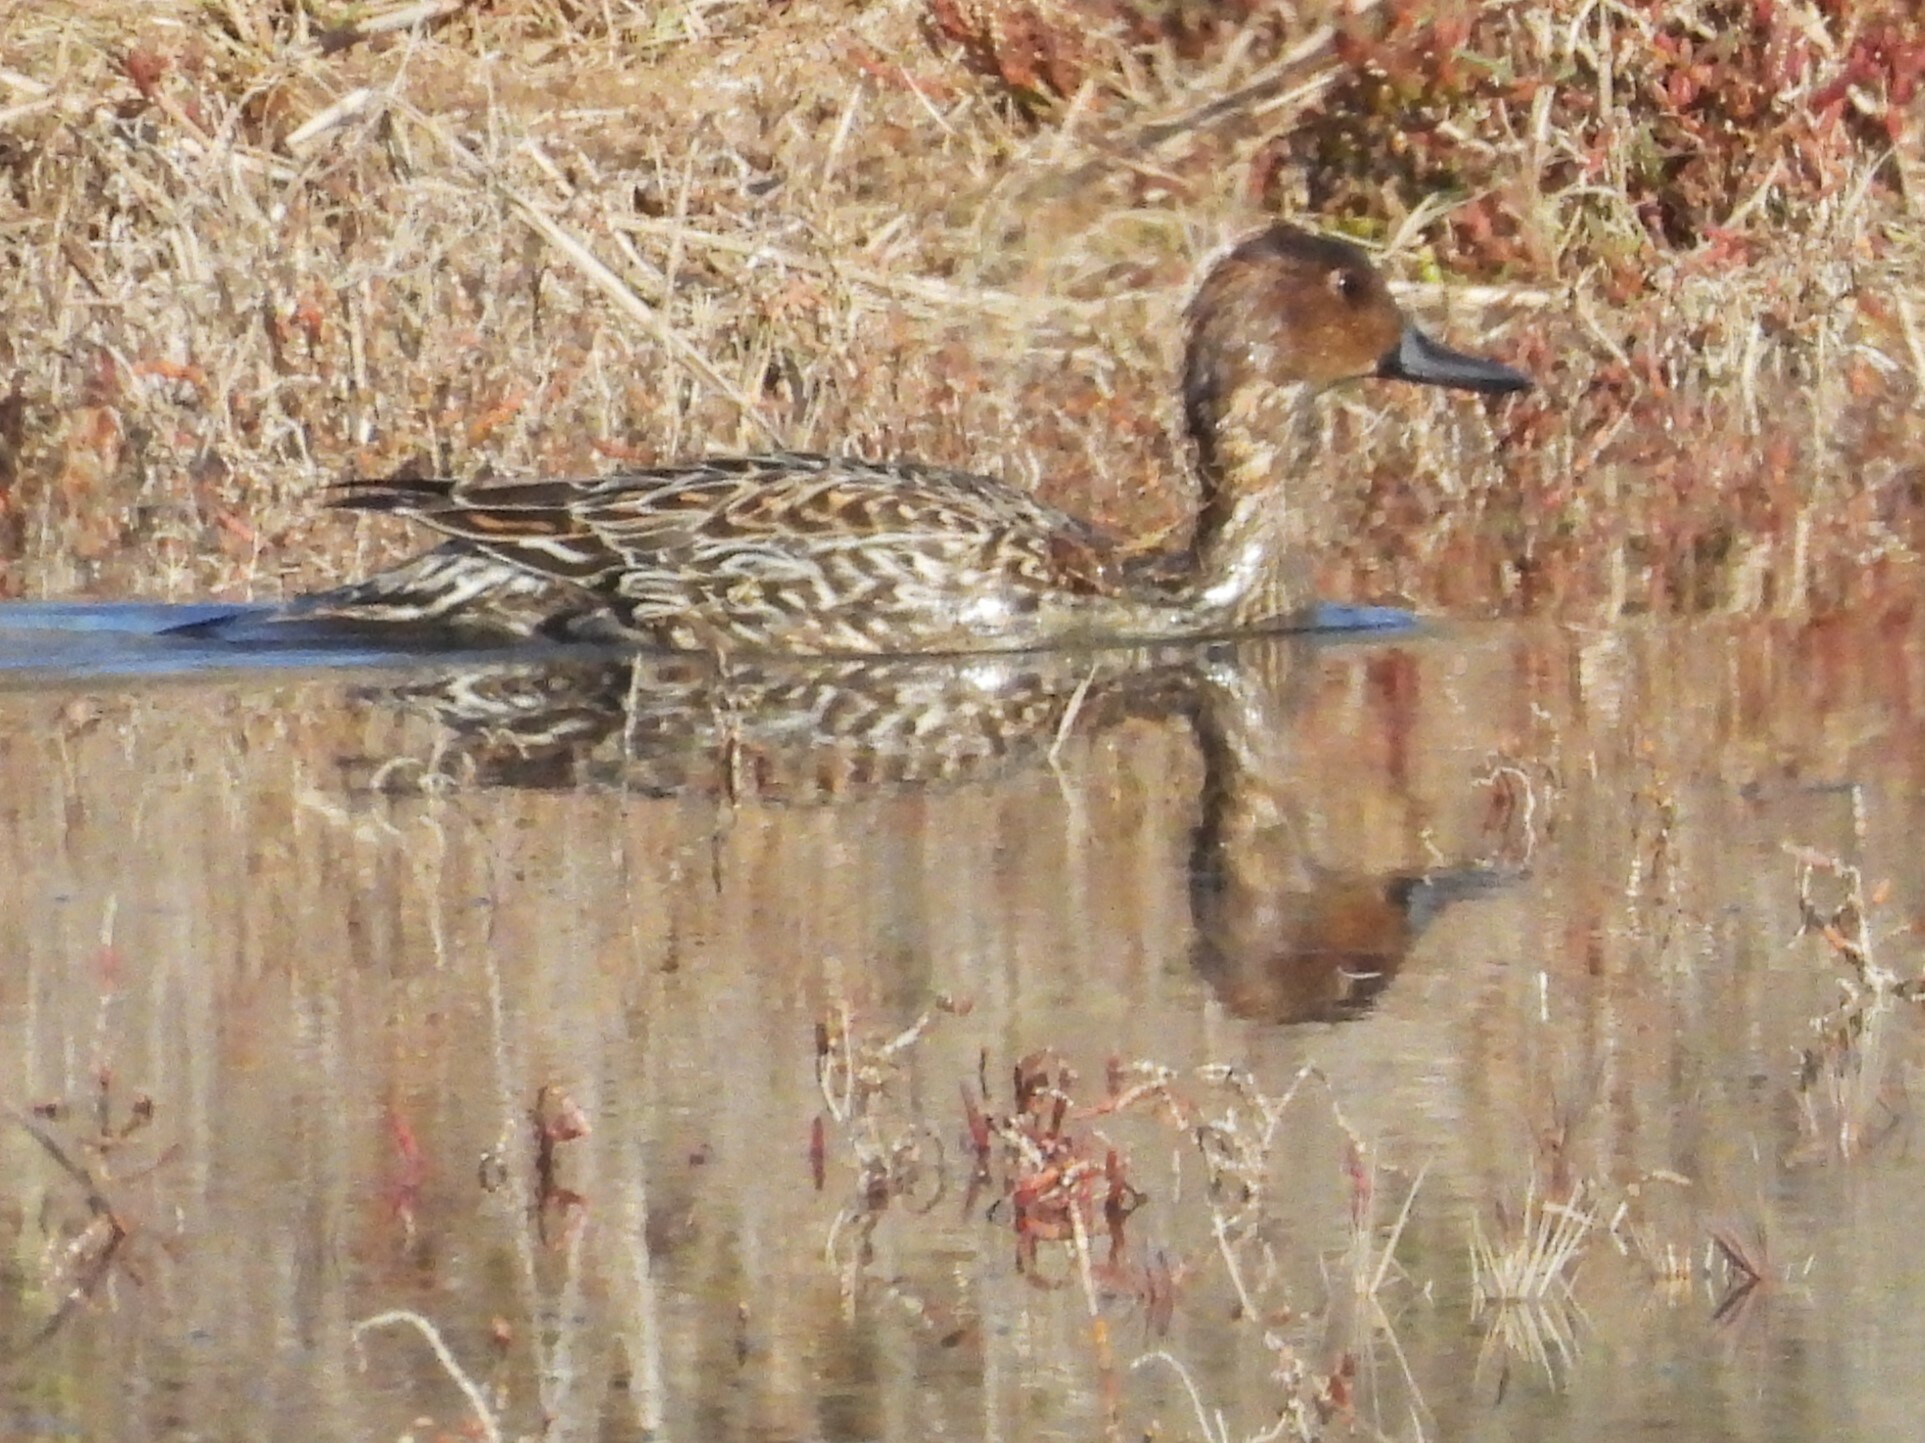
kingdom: Animalia
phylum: Chordata
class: Aves
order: Anseriformes
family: Anatidae
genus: Anas
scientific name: Anas acuta
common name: Northern pintail
